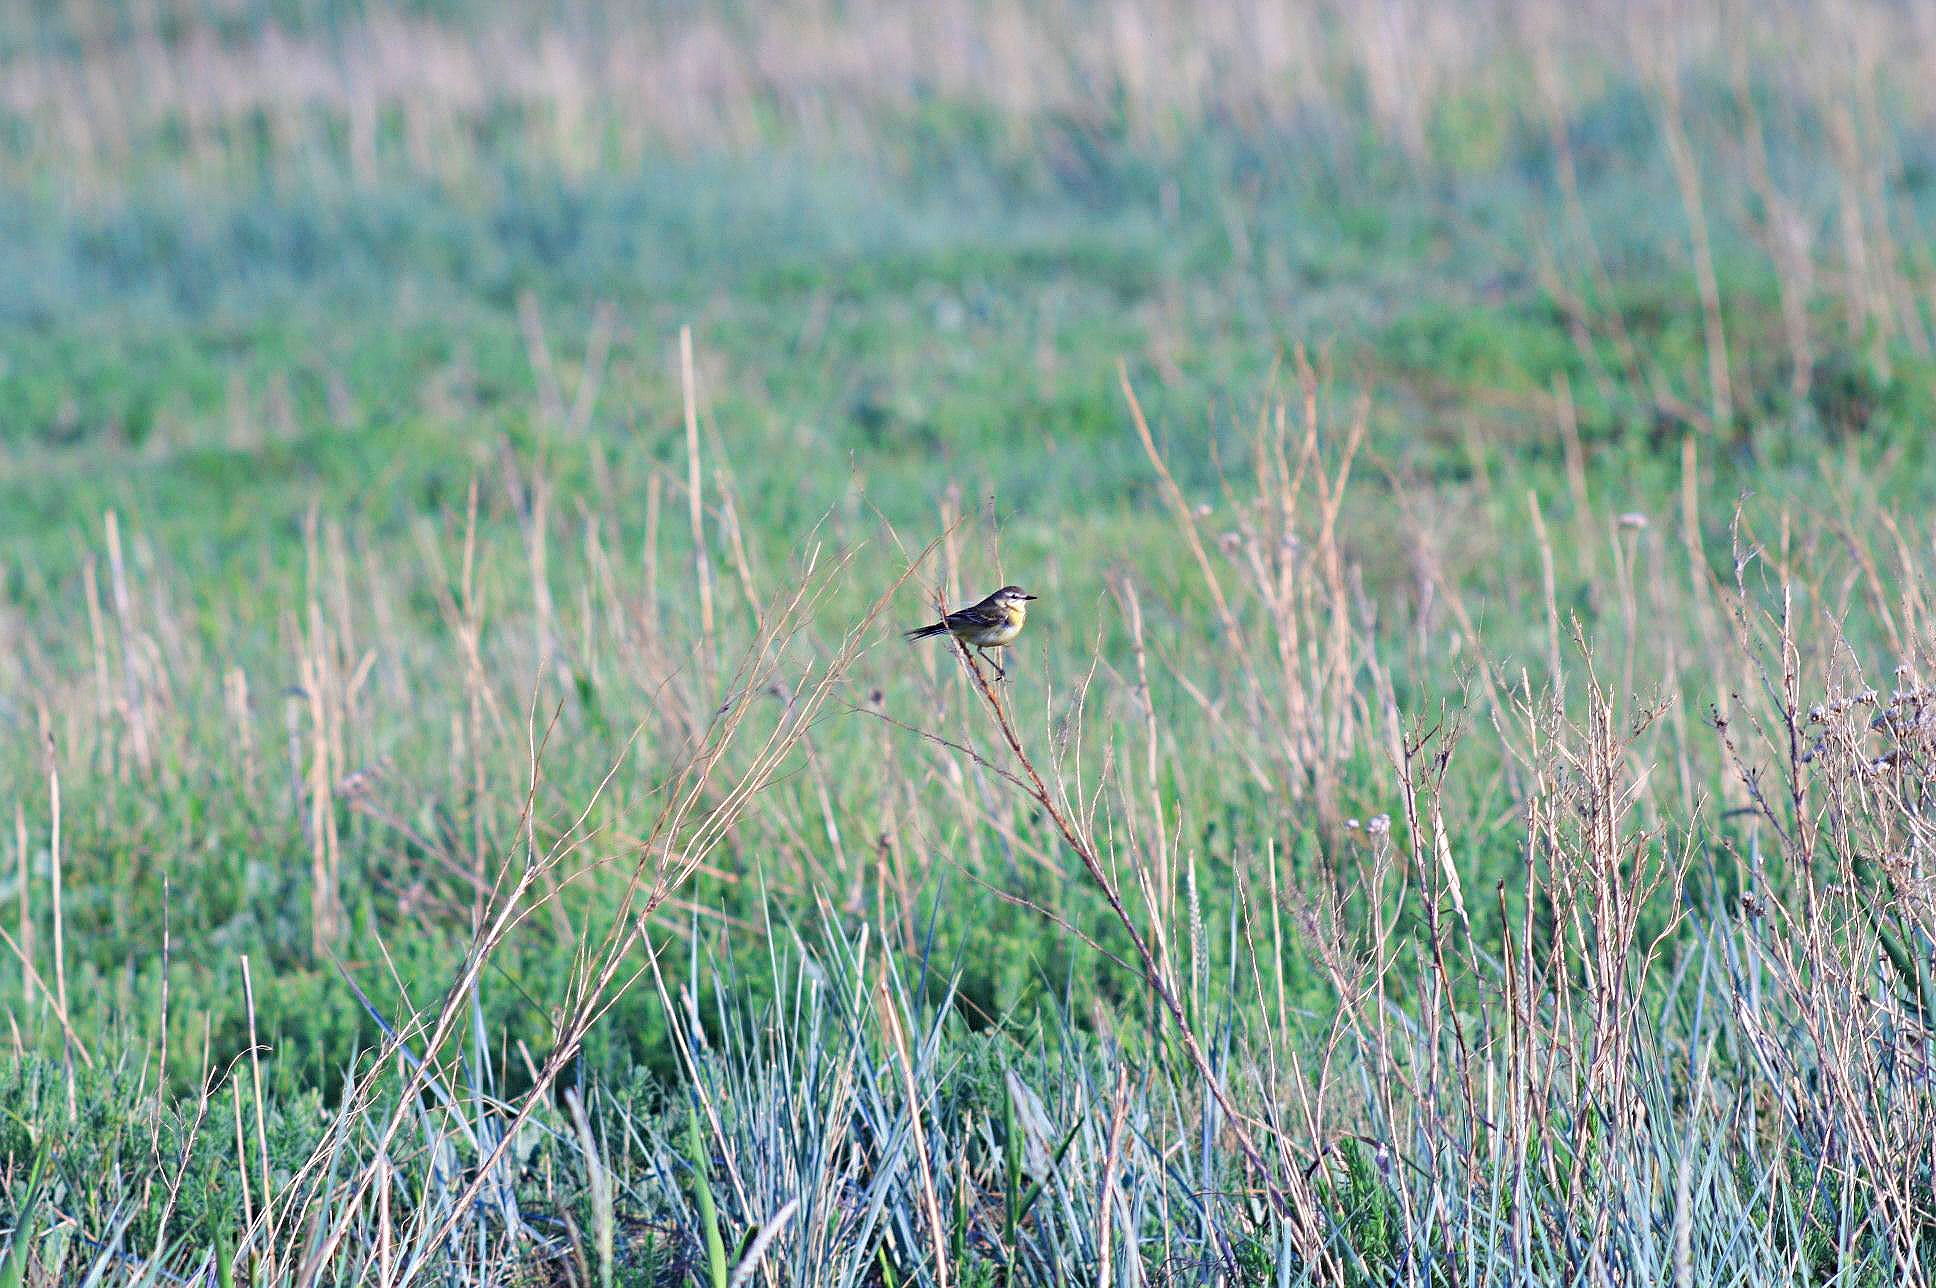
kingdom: Animalia
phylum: Chordata
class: Aves
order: Passeriformes
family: Motacillidae
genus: Motacilla
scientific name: Motacilla flava
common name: Western yellow wagtail
